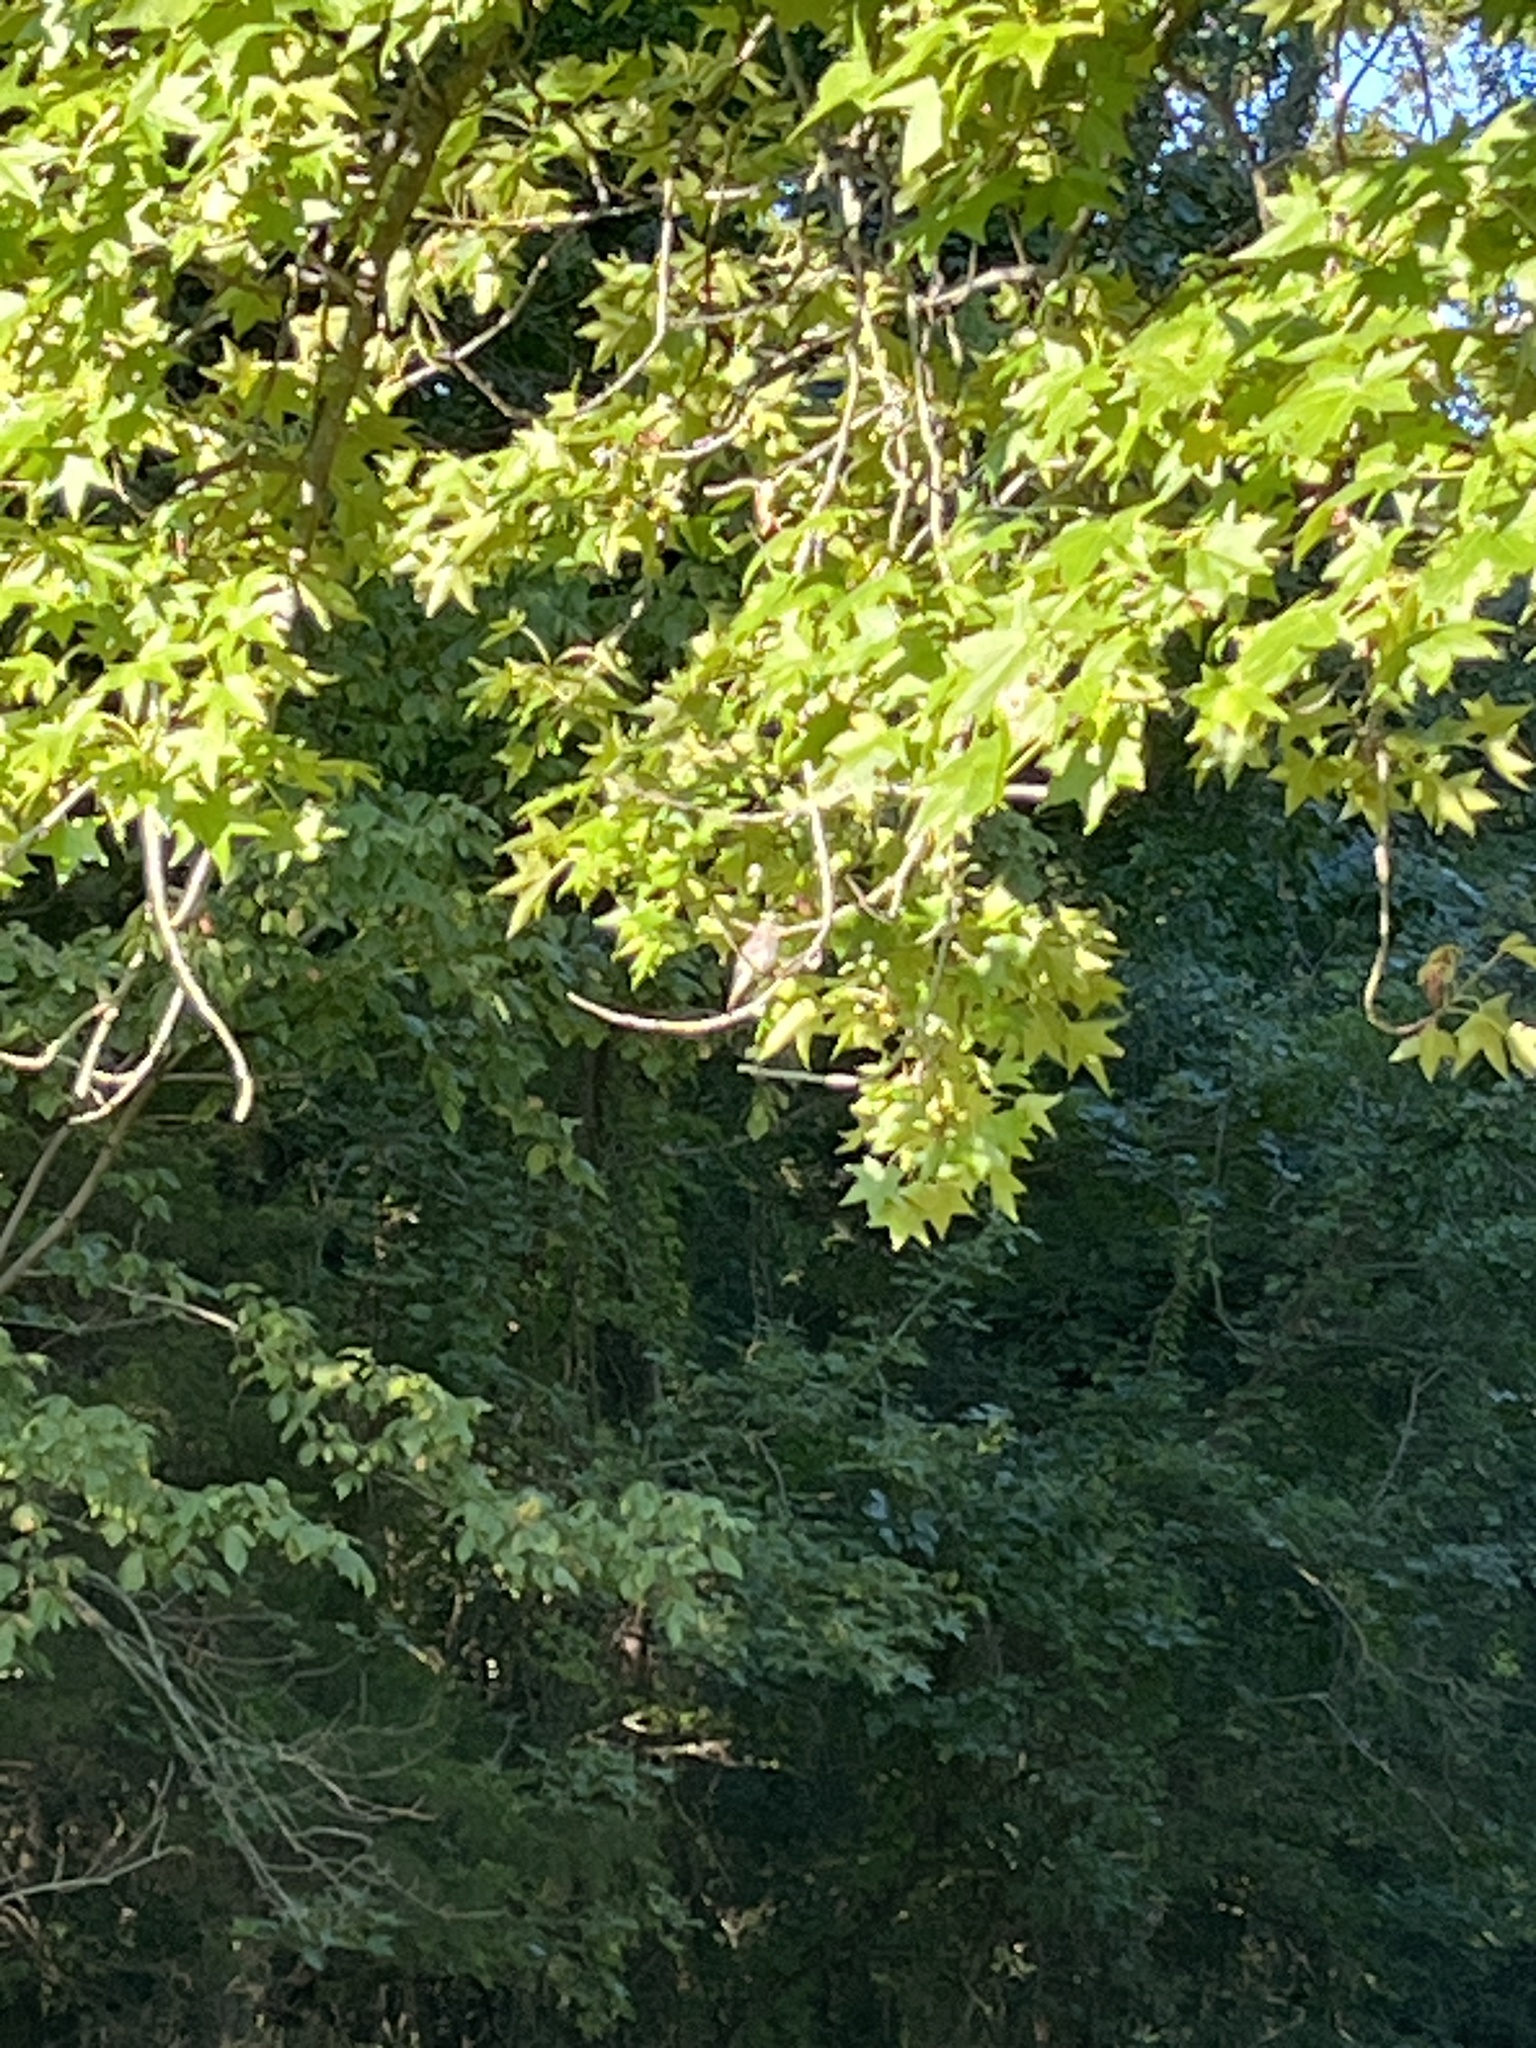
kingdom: Animalia
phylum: Chordata
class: Aves
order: Passeriformes
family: Tyrannidae
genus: Contopus
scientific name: Contopus virens
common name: Eastern wood-pewee
